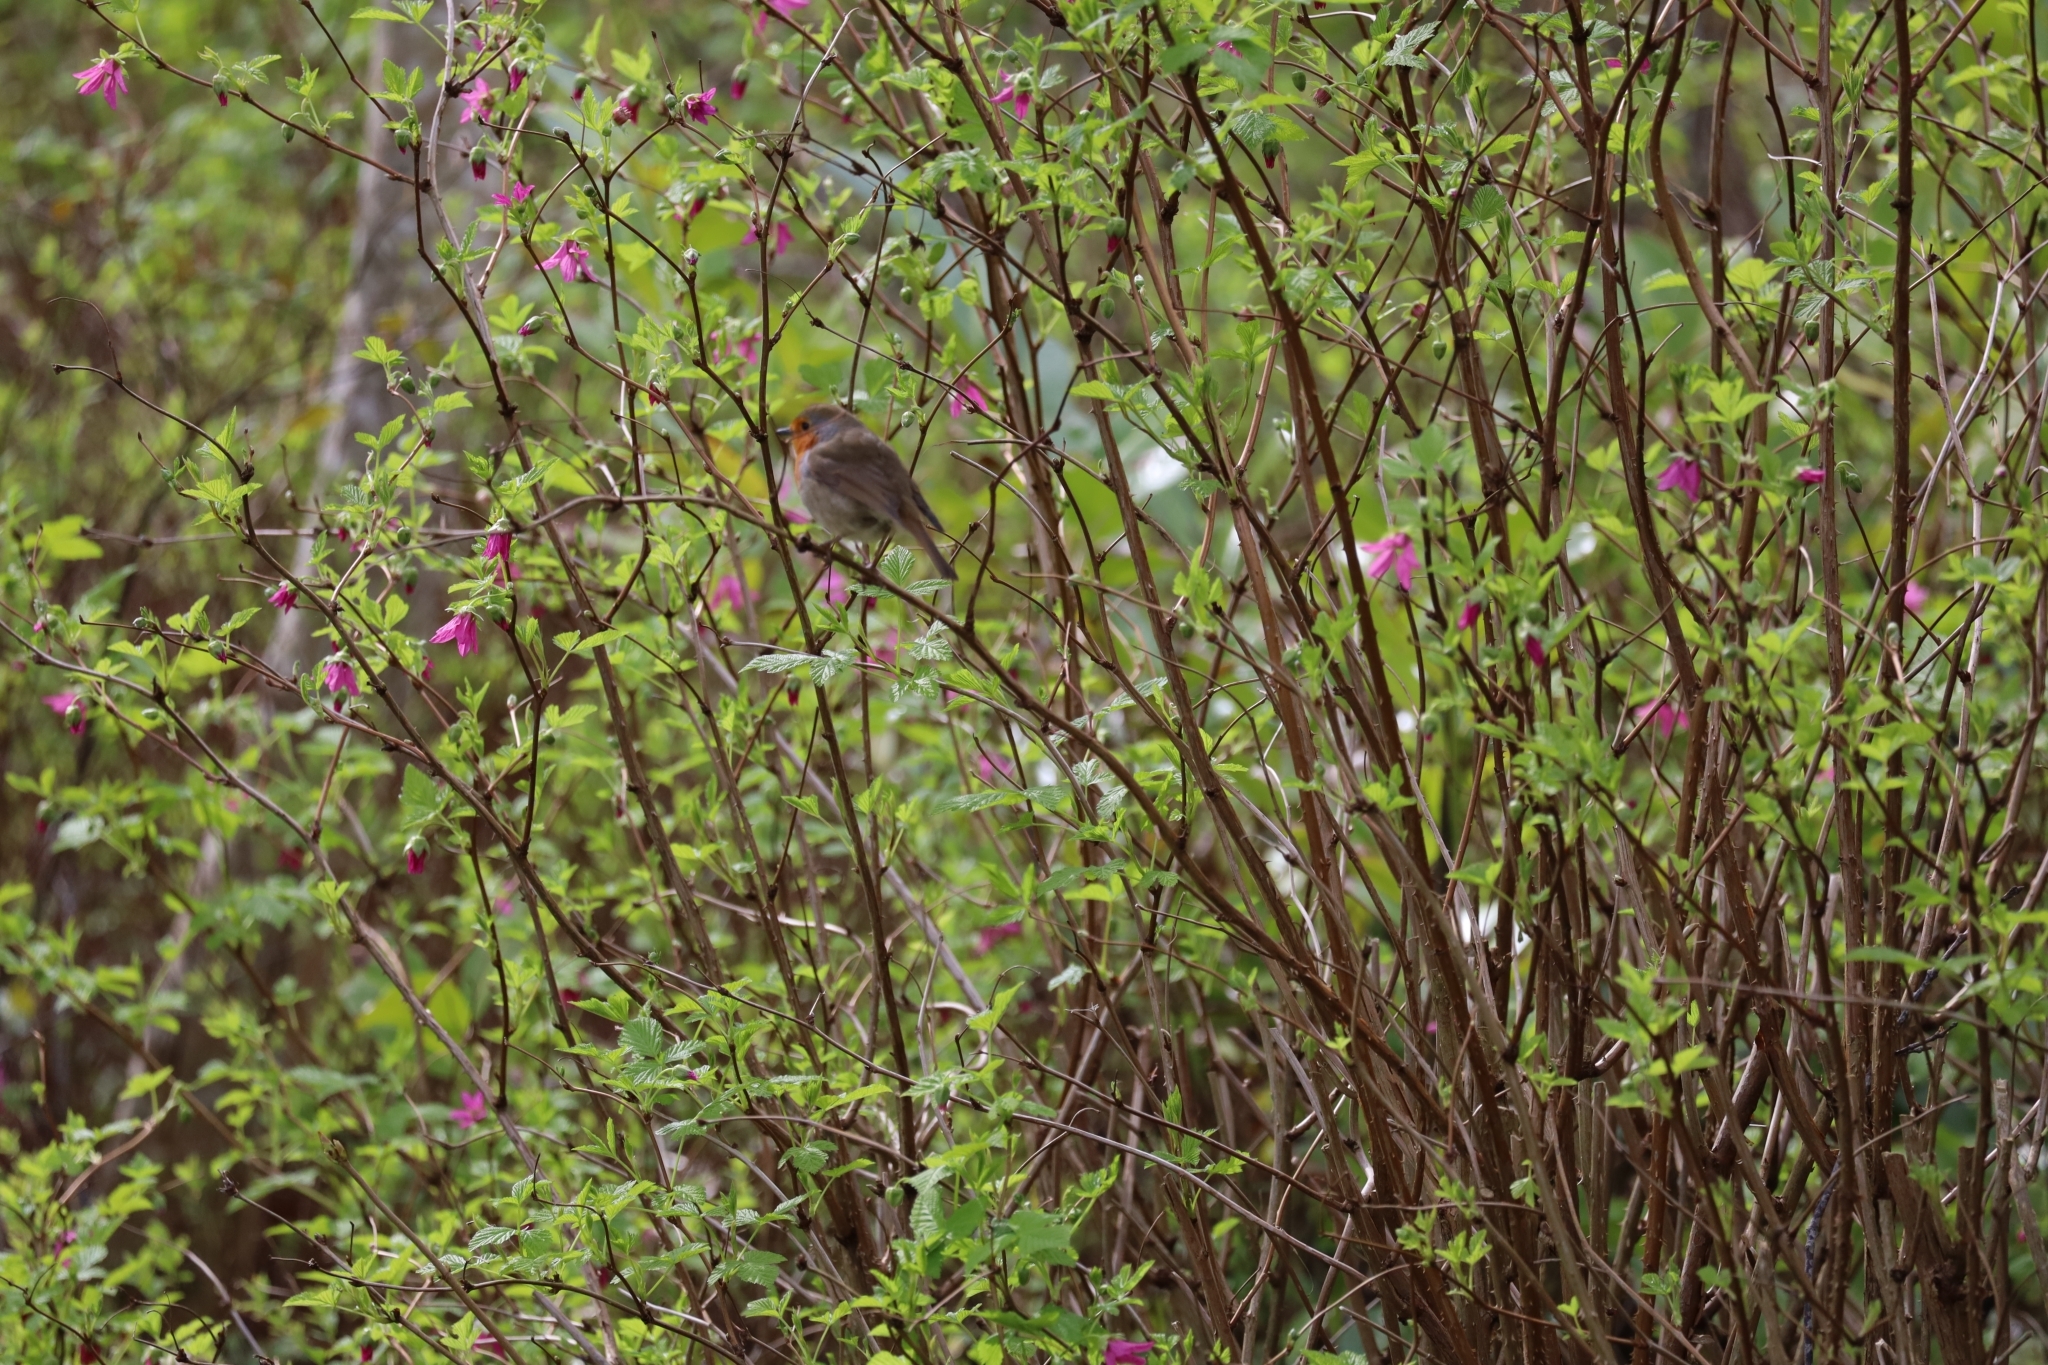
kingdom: Animalia
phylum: Chordata
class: Aves
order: Passeriformes
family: Muscicapidae
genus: Erithacus
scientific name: Erithacus rubecula
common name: European robin
